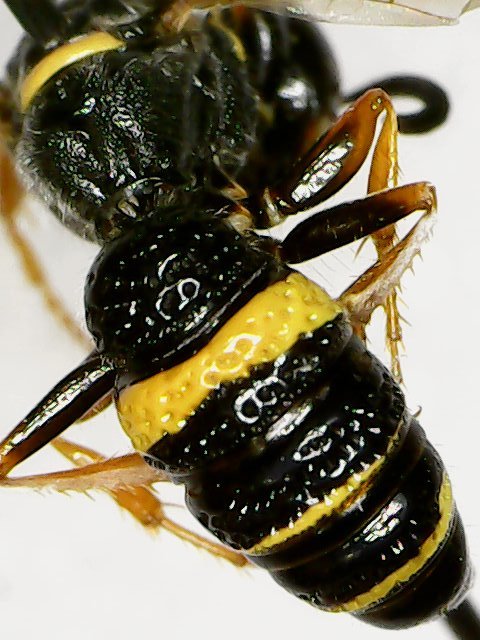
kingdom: Animalia
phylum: Arthropoda
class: Insecta
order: Hymenoptera
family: Crabronidae
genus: Philanthus
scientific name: Philanthus gibbosus
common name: Humped beewolf
